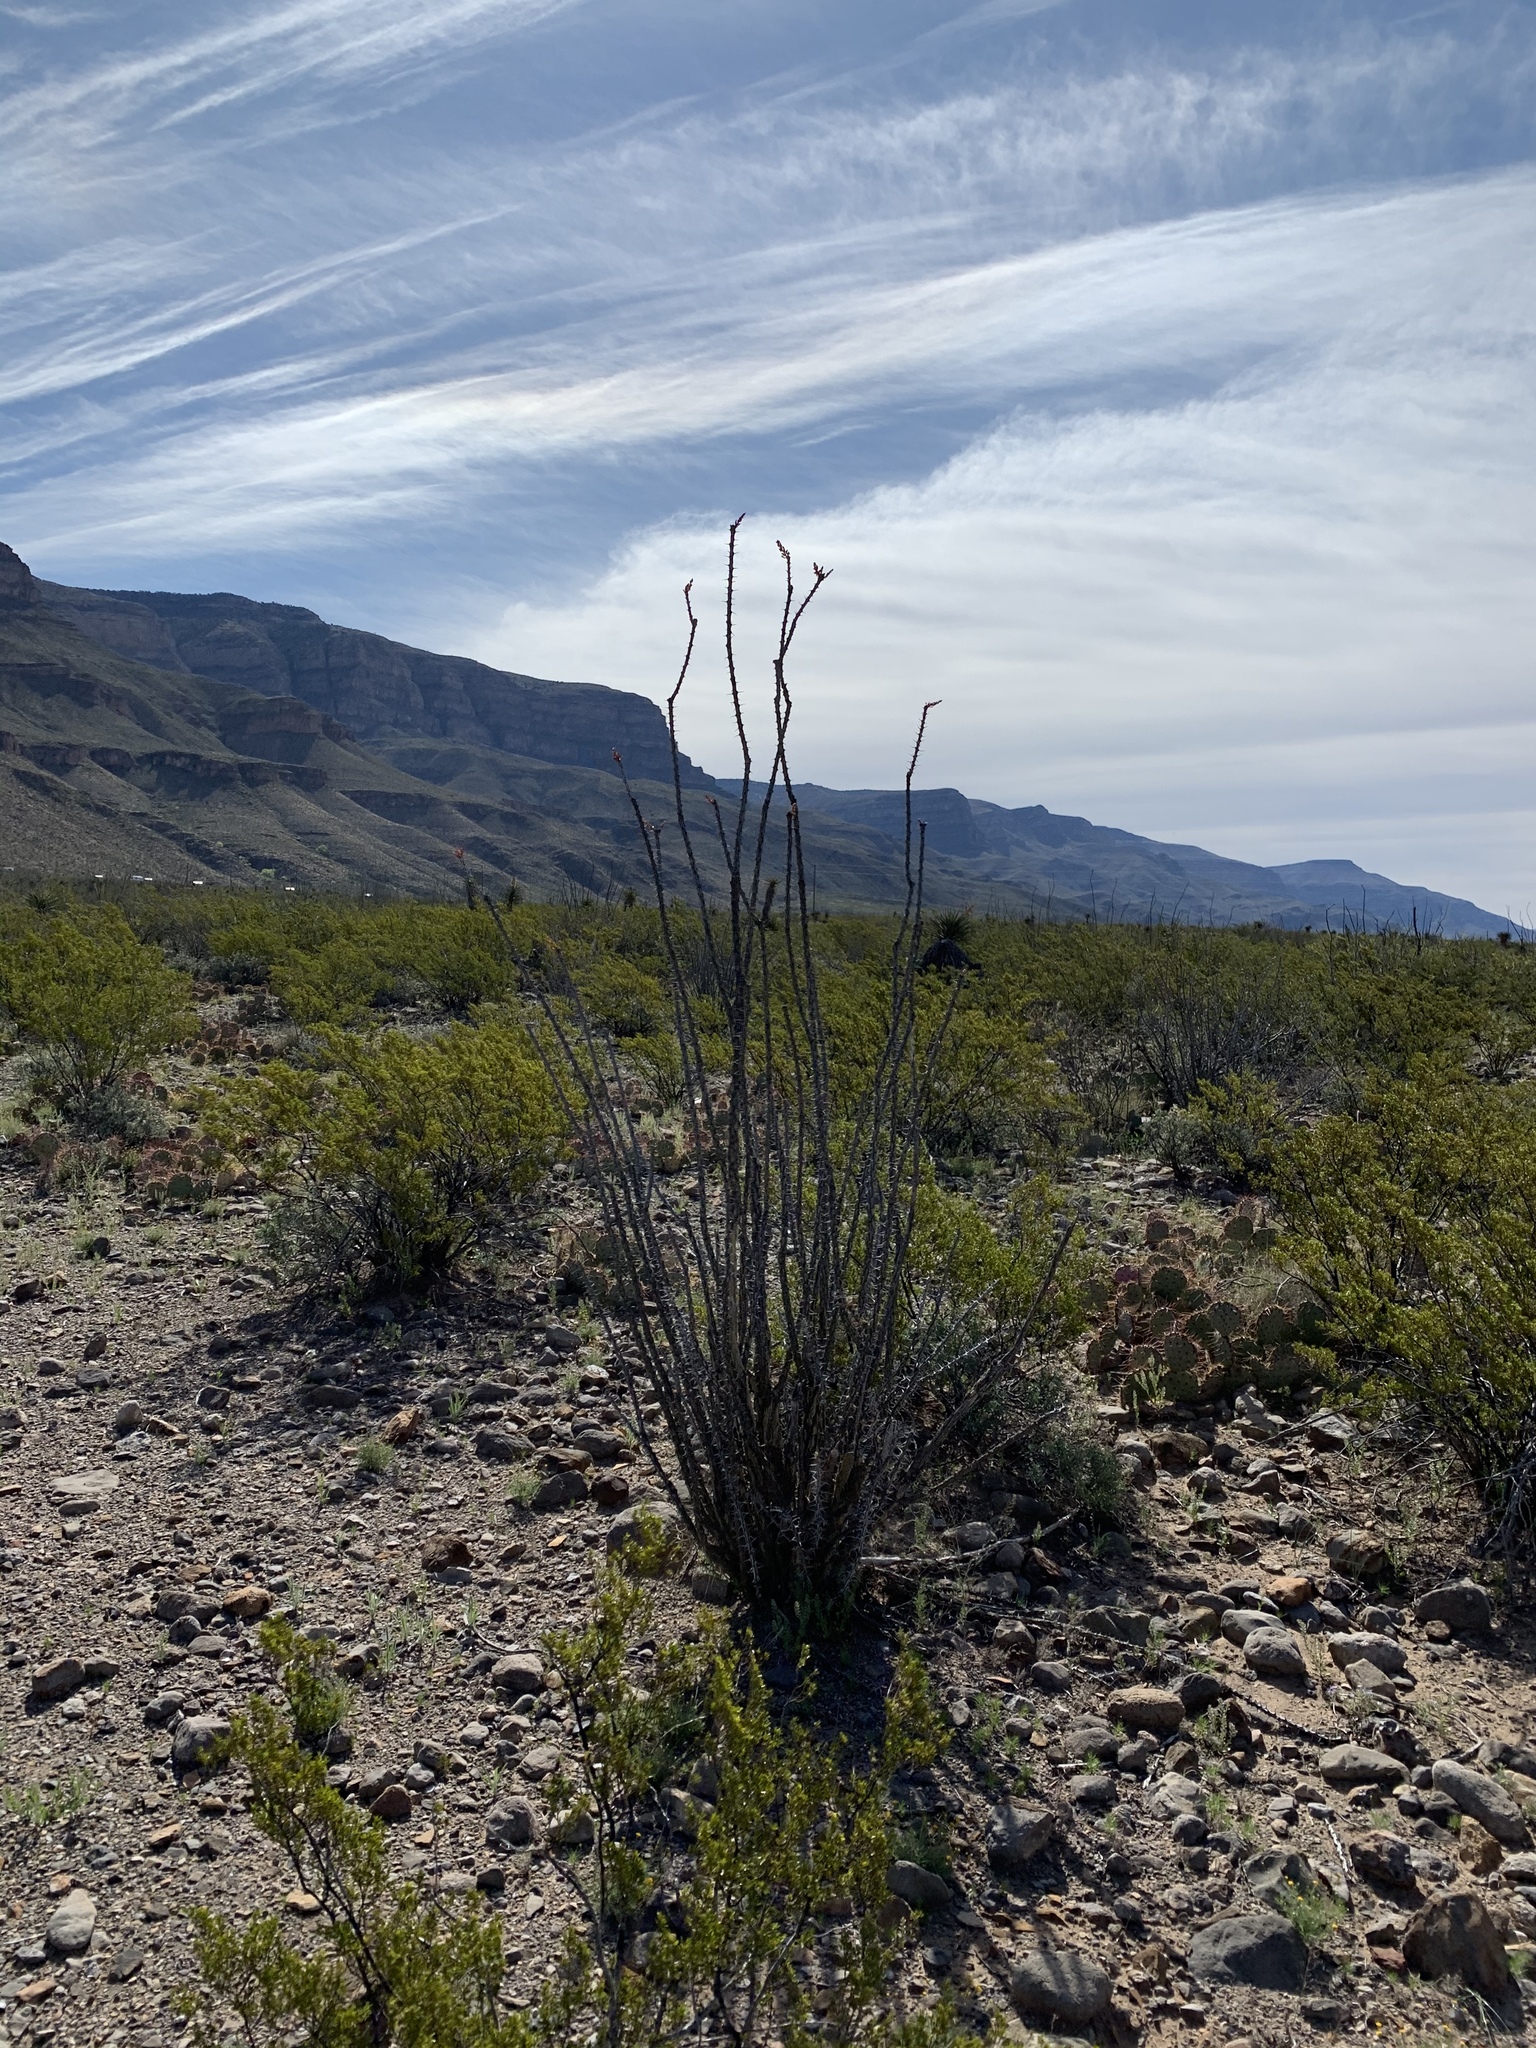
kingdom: Plantae
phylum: Tracheophyta
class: Magnoliopsida
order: Ericales
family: Fouquieriaceae
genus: Fouquieria
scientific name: Fouquieria splendens
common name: Vine-cactus
